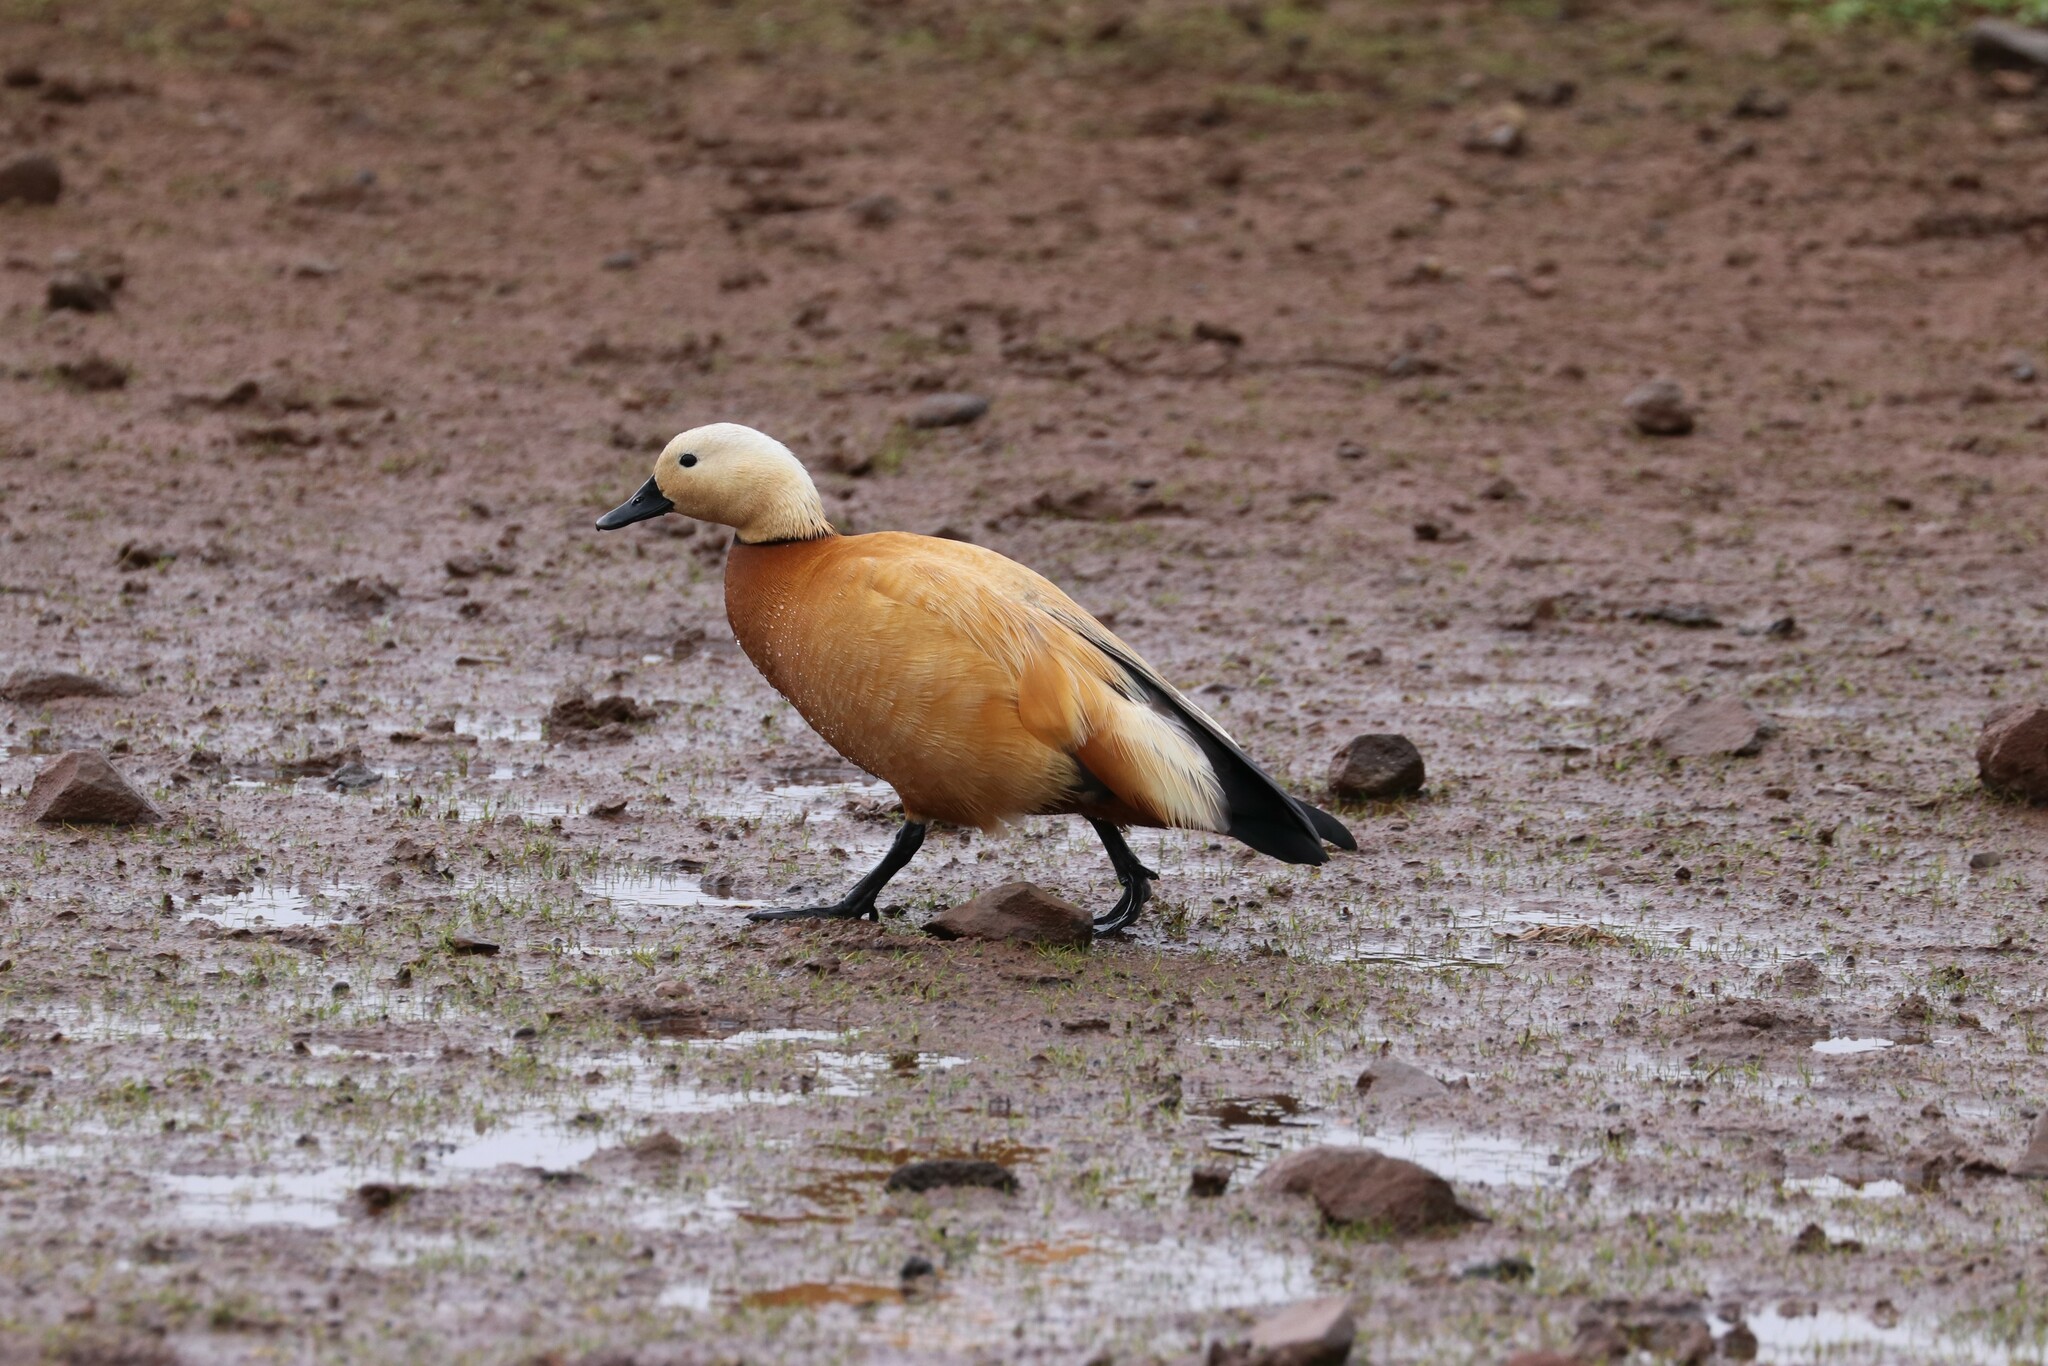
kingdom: Animalia
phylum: Chordata
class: Aves
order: Anseriformes
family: Anatidae
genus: Tadorna
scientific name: Tadorna ferruginea
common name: Ruddy shelduck
